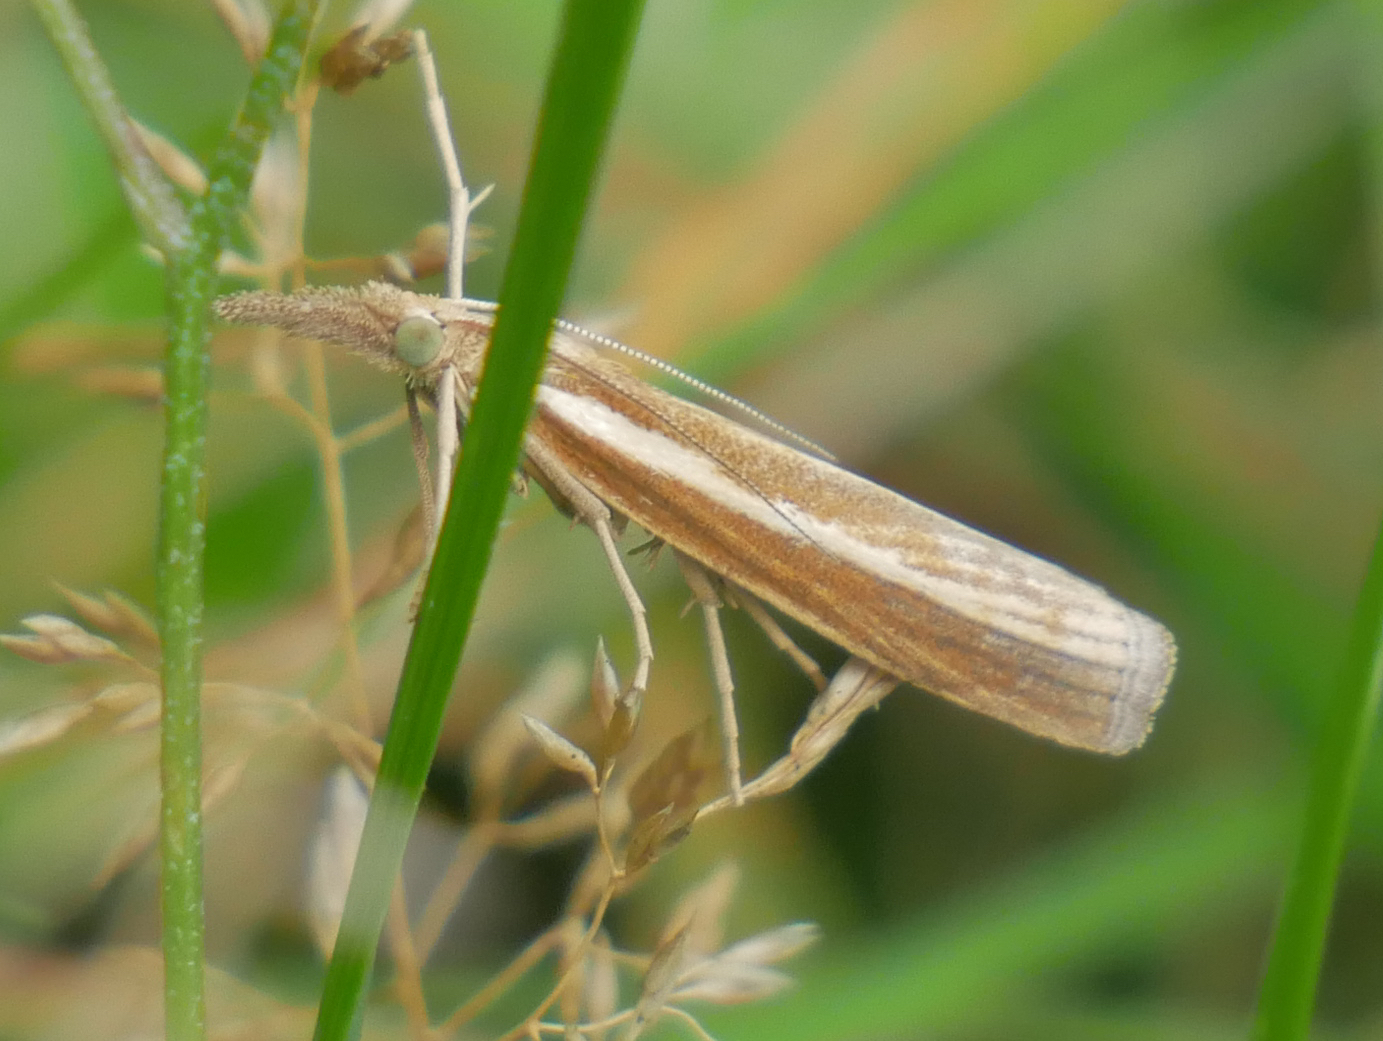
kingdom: Animalia
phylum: Arthropoda
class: Insecta
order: Lepidoptera
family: Crambidae
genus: Agriphila
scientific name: Agriphila tristellus
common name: Common grass-veneer
